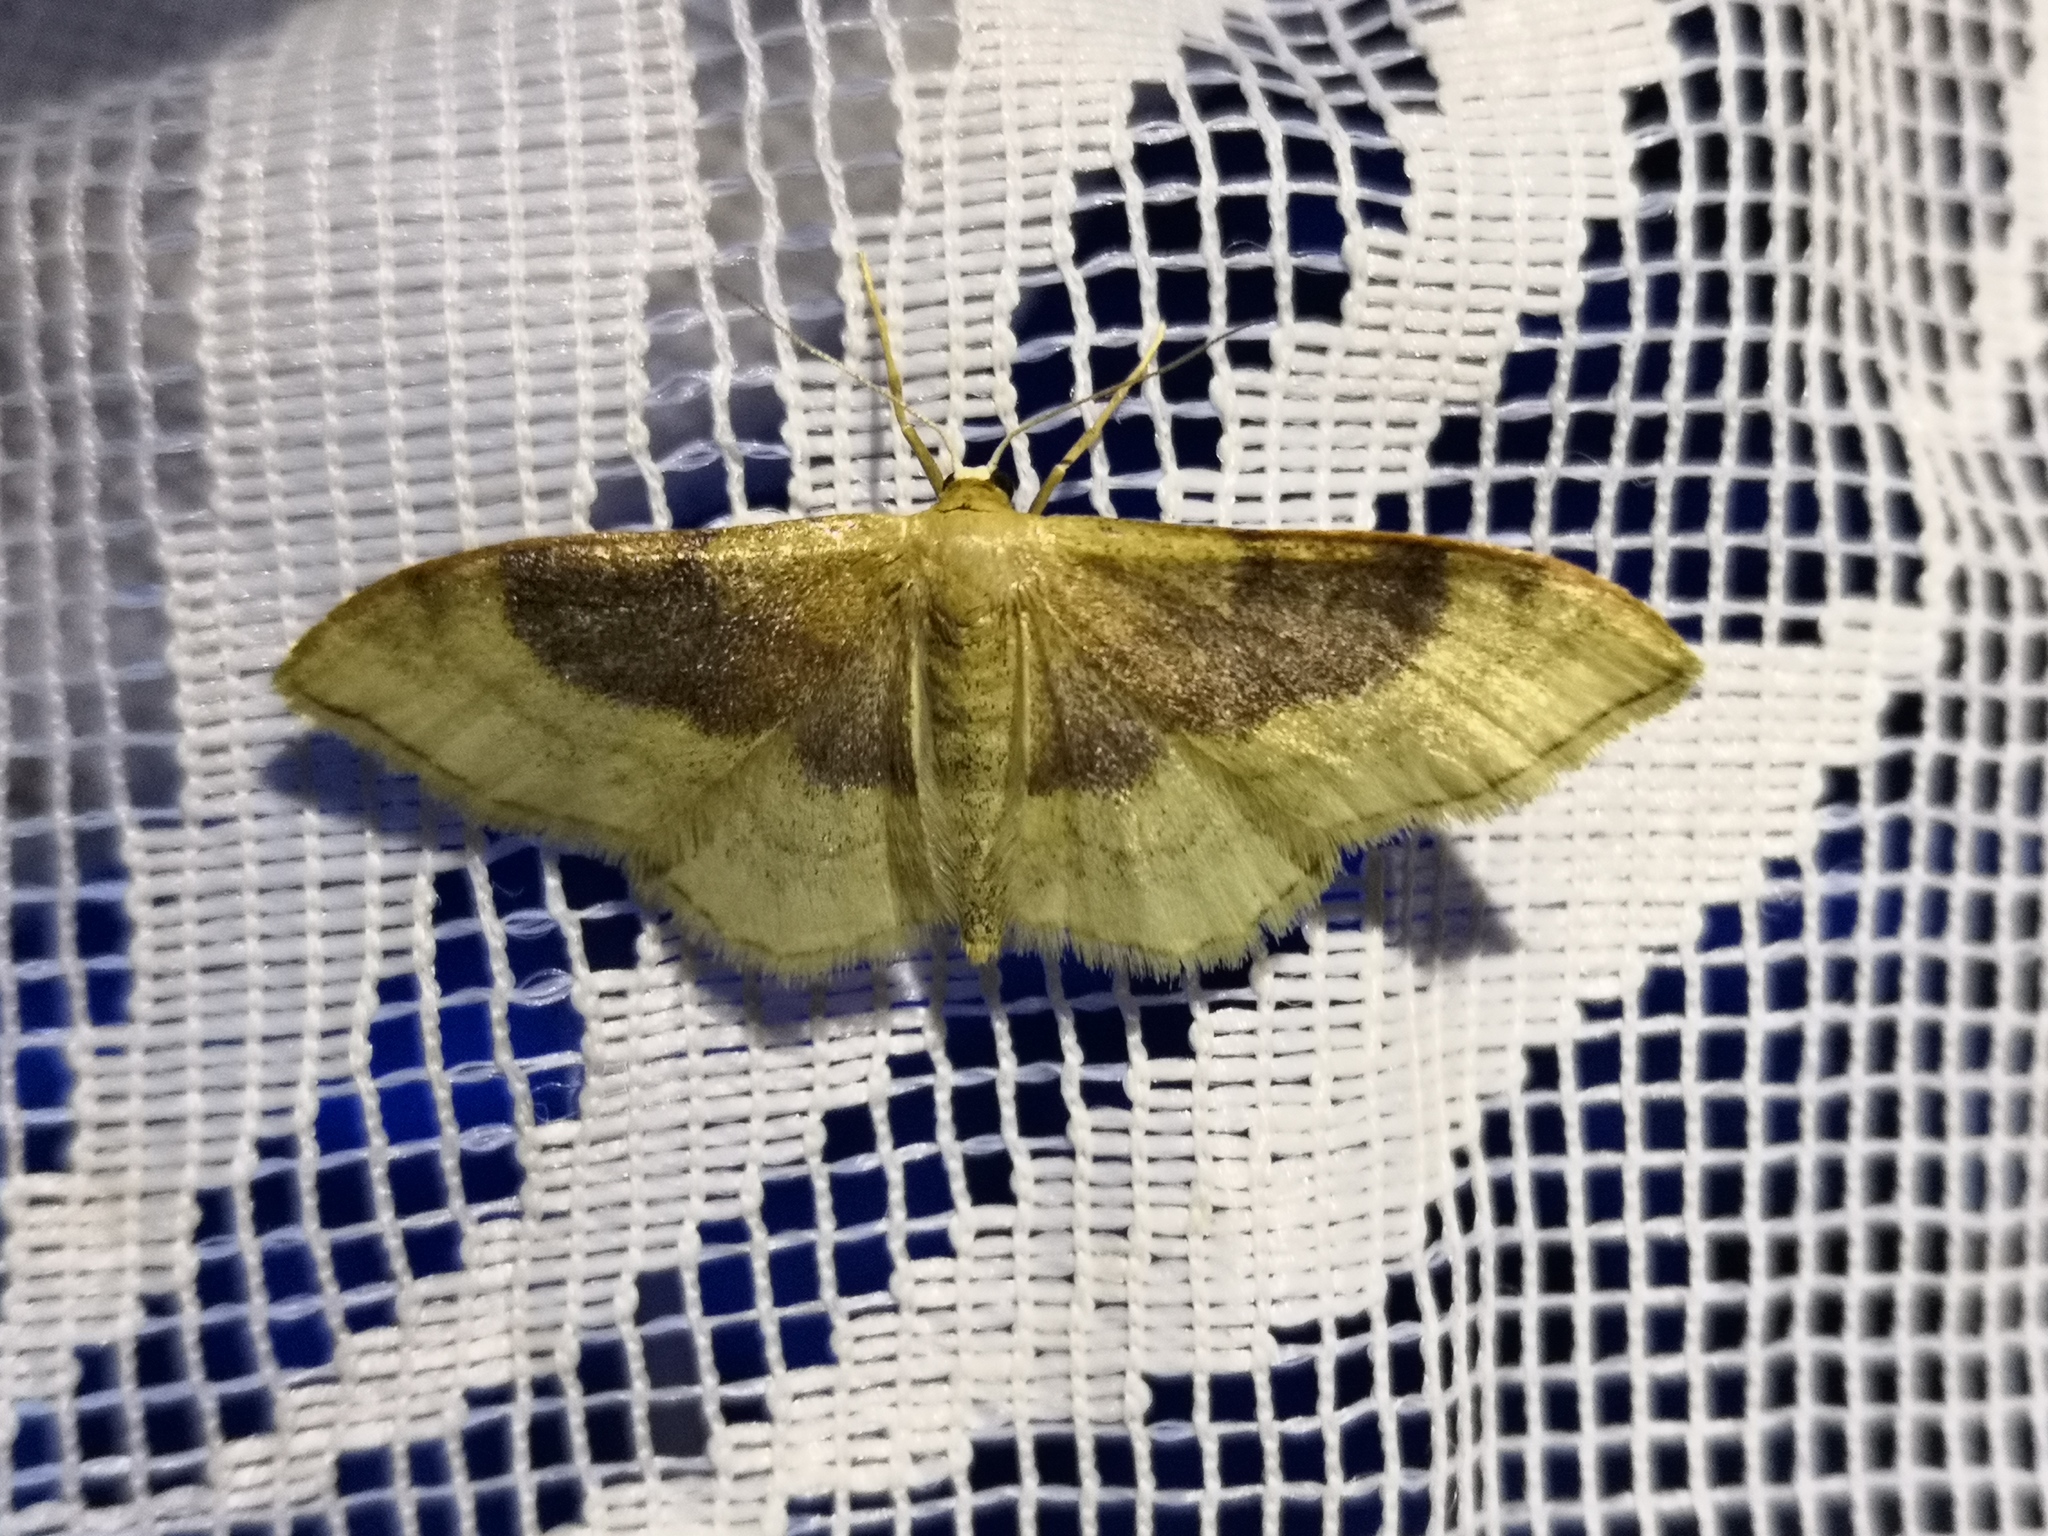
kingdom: Animalia
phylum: Arthropoda
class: Insecta
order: Lepidoptera
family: Geometridae
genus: Idaea
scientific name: Idaea degeneraria
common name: Portland ribbon wave
